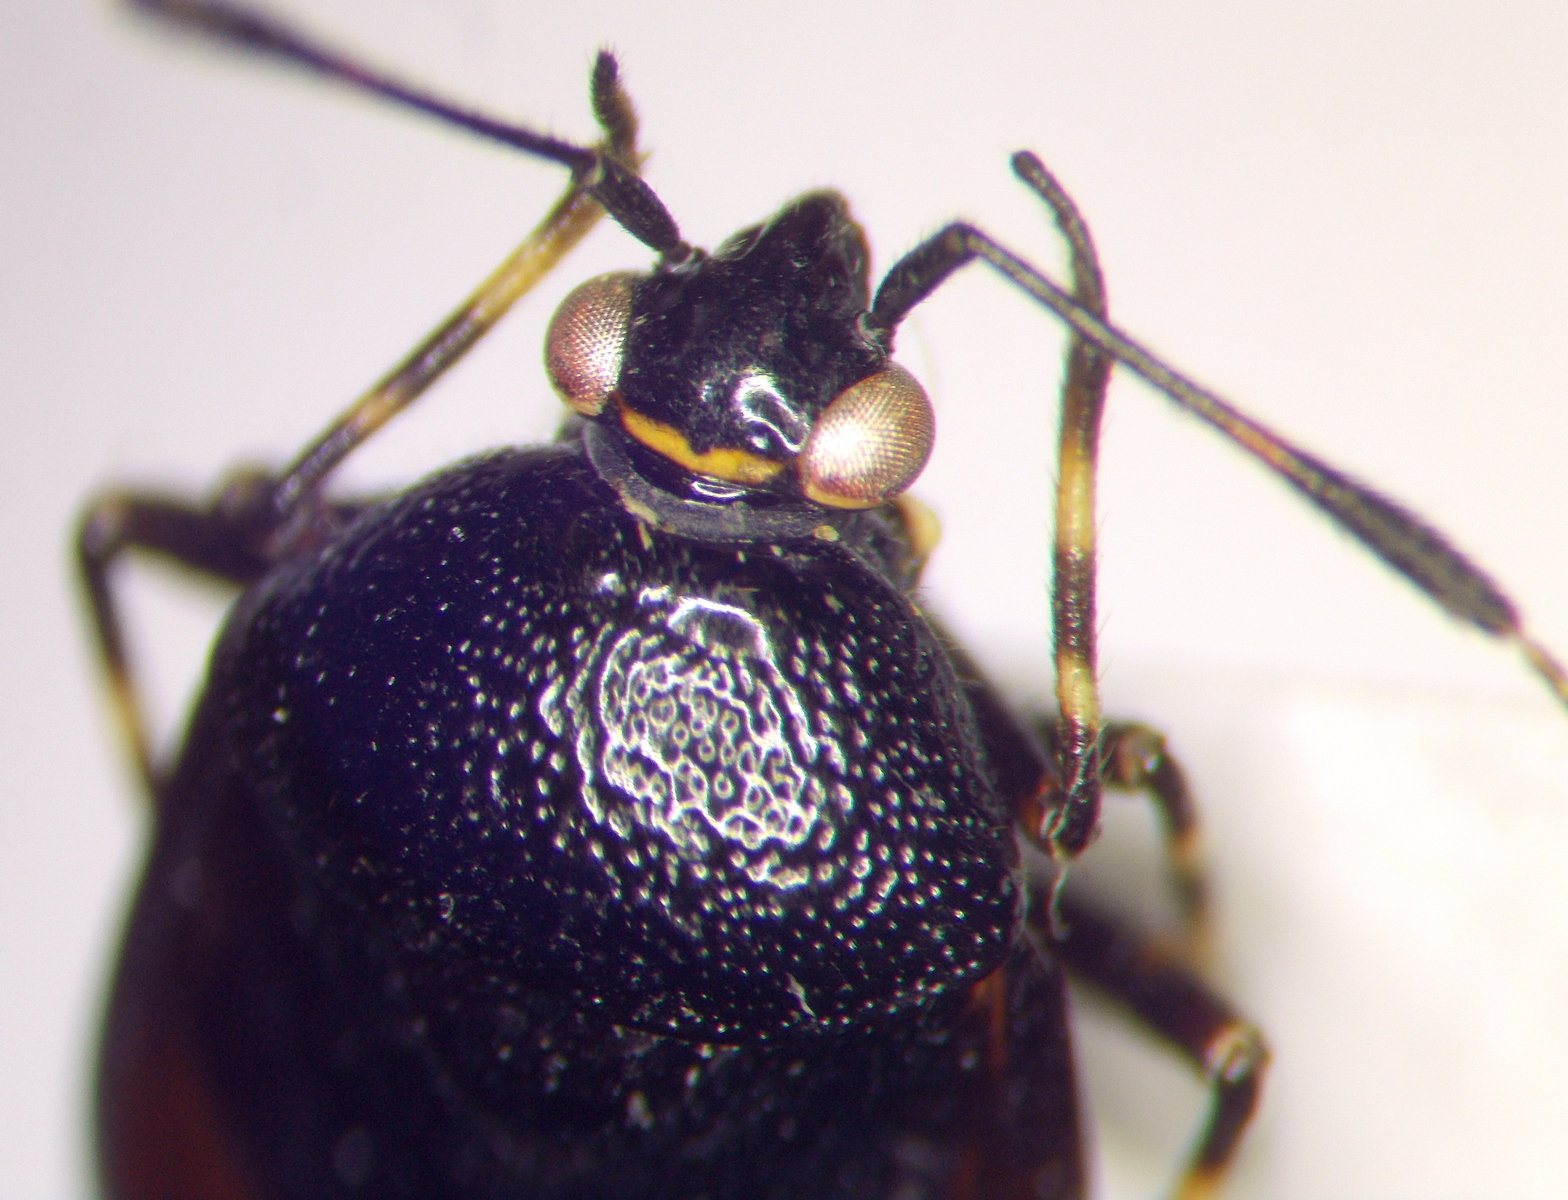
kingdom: Animalia
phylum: Arthropoda
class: Insecta
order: Hemiptera
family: Miridae
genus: Deraeocoris
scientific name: Deraeocoris rutilus
